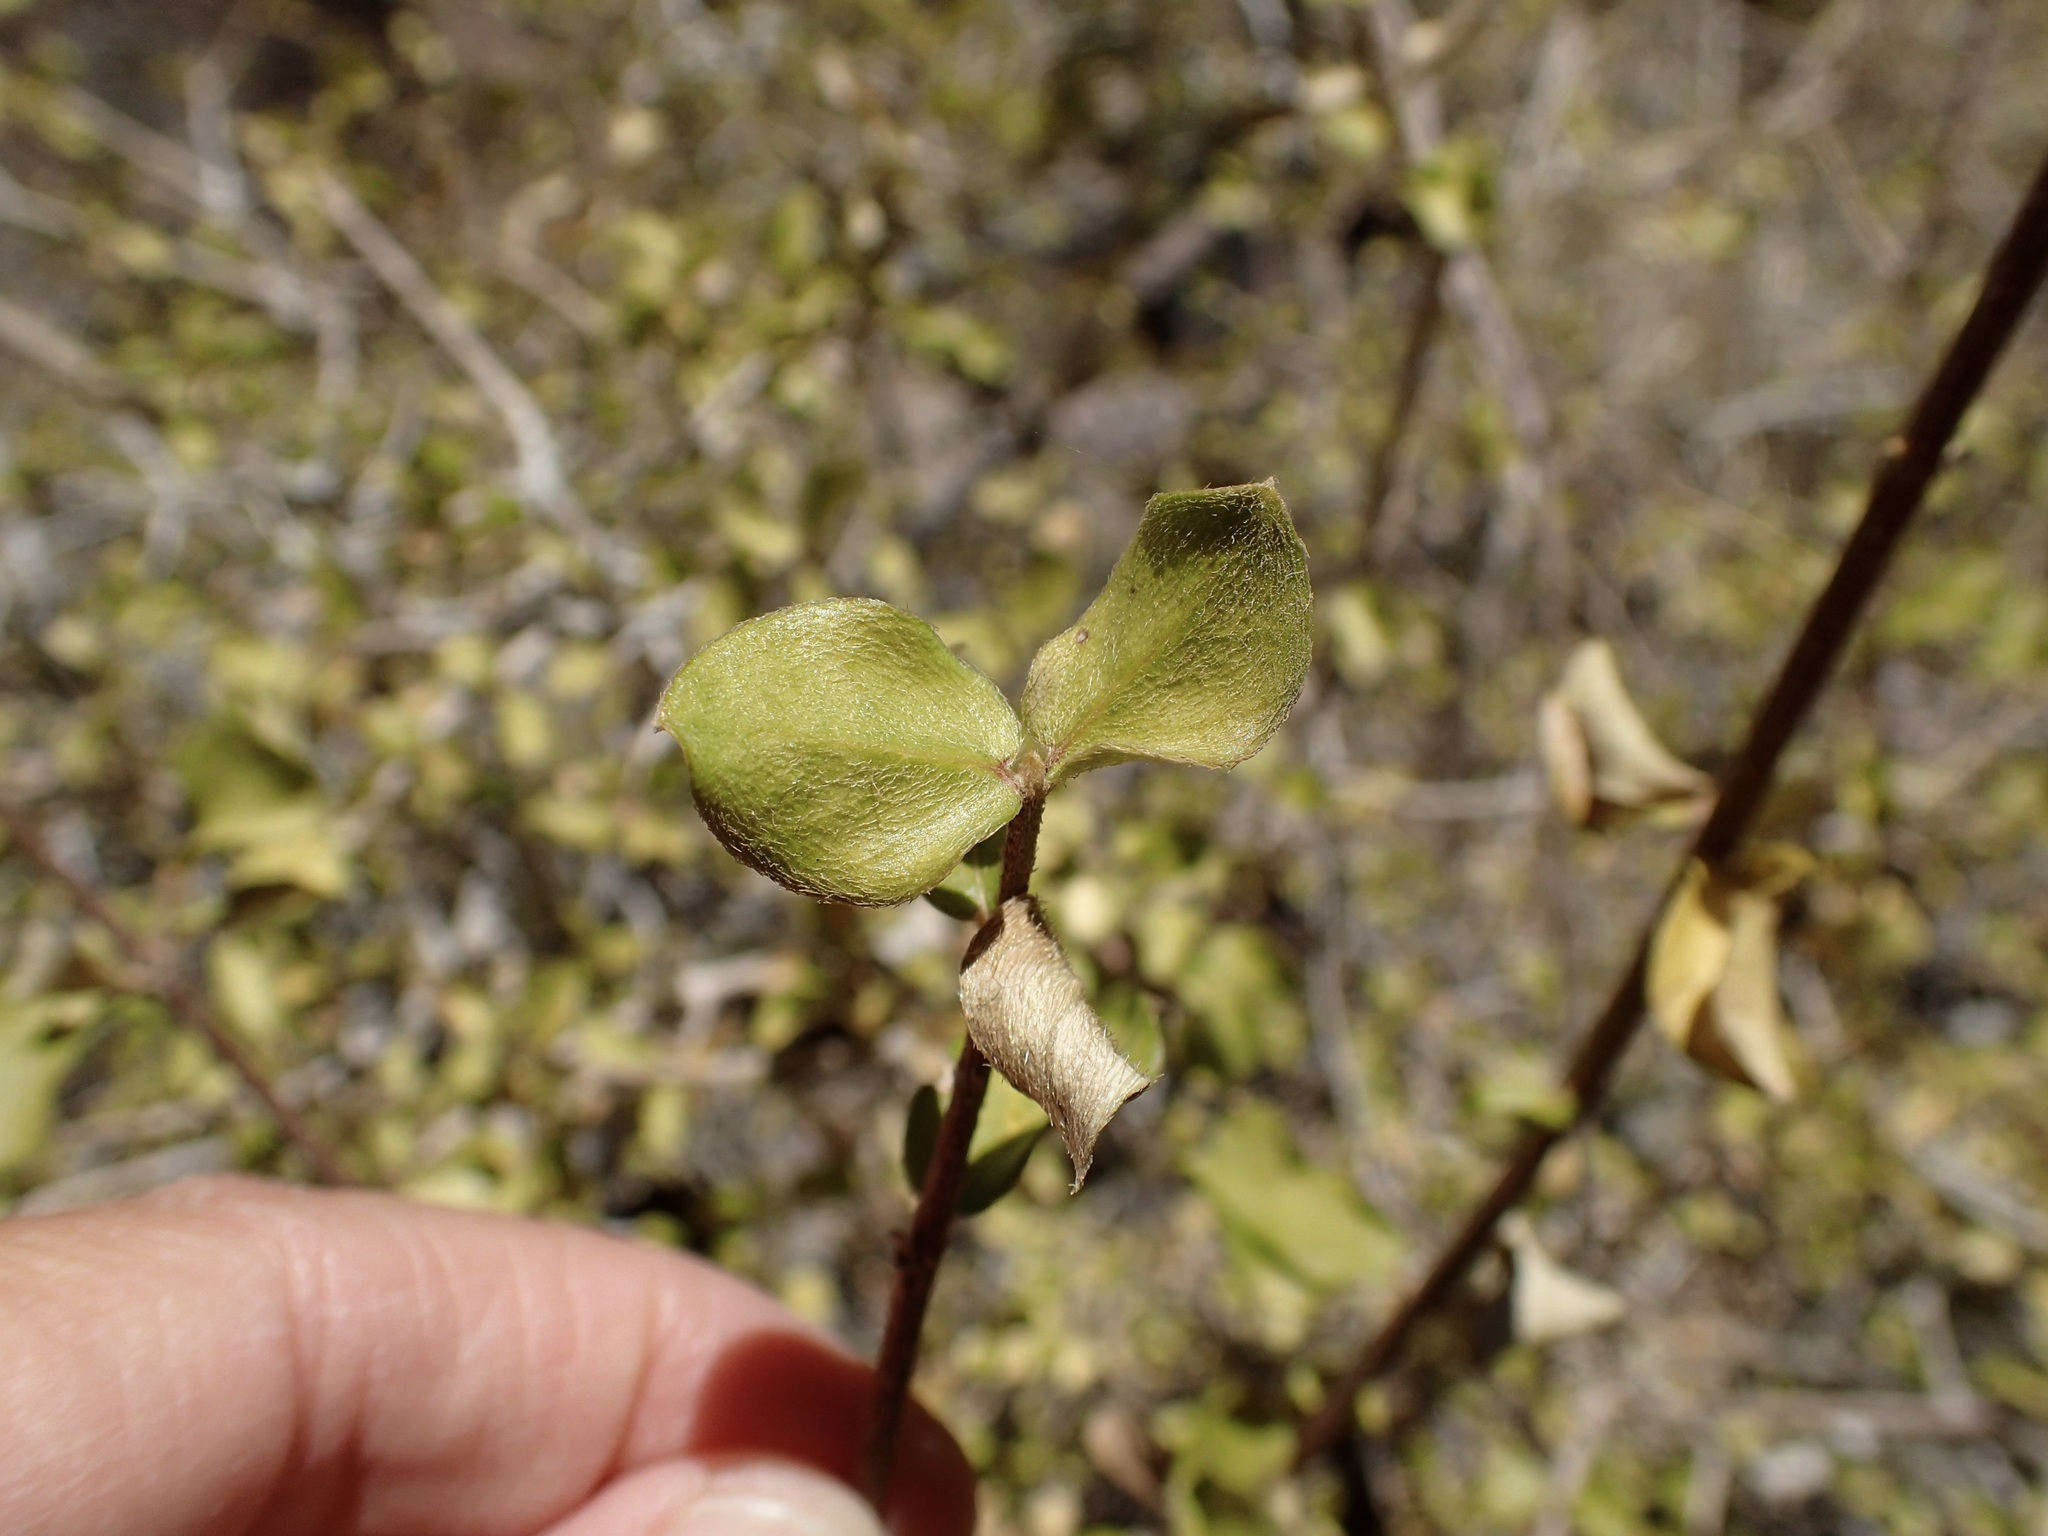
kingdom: Plantae
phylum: Tracheophyta
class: Magnoliopsida
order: Malpighiales
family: Malpighiaceae
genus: Malpighia
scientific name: Malpighia diversifolia
